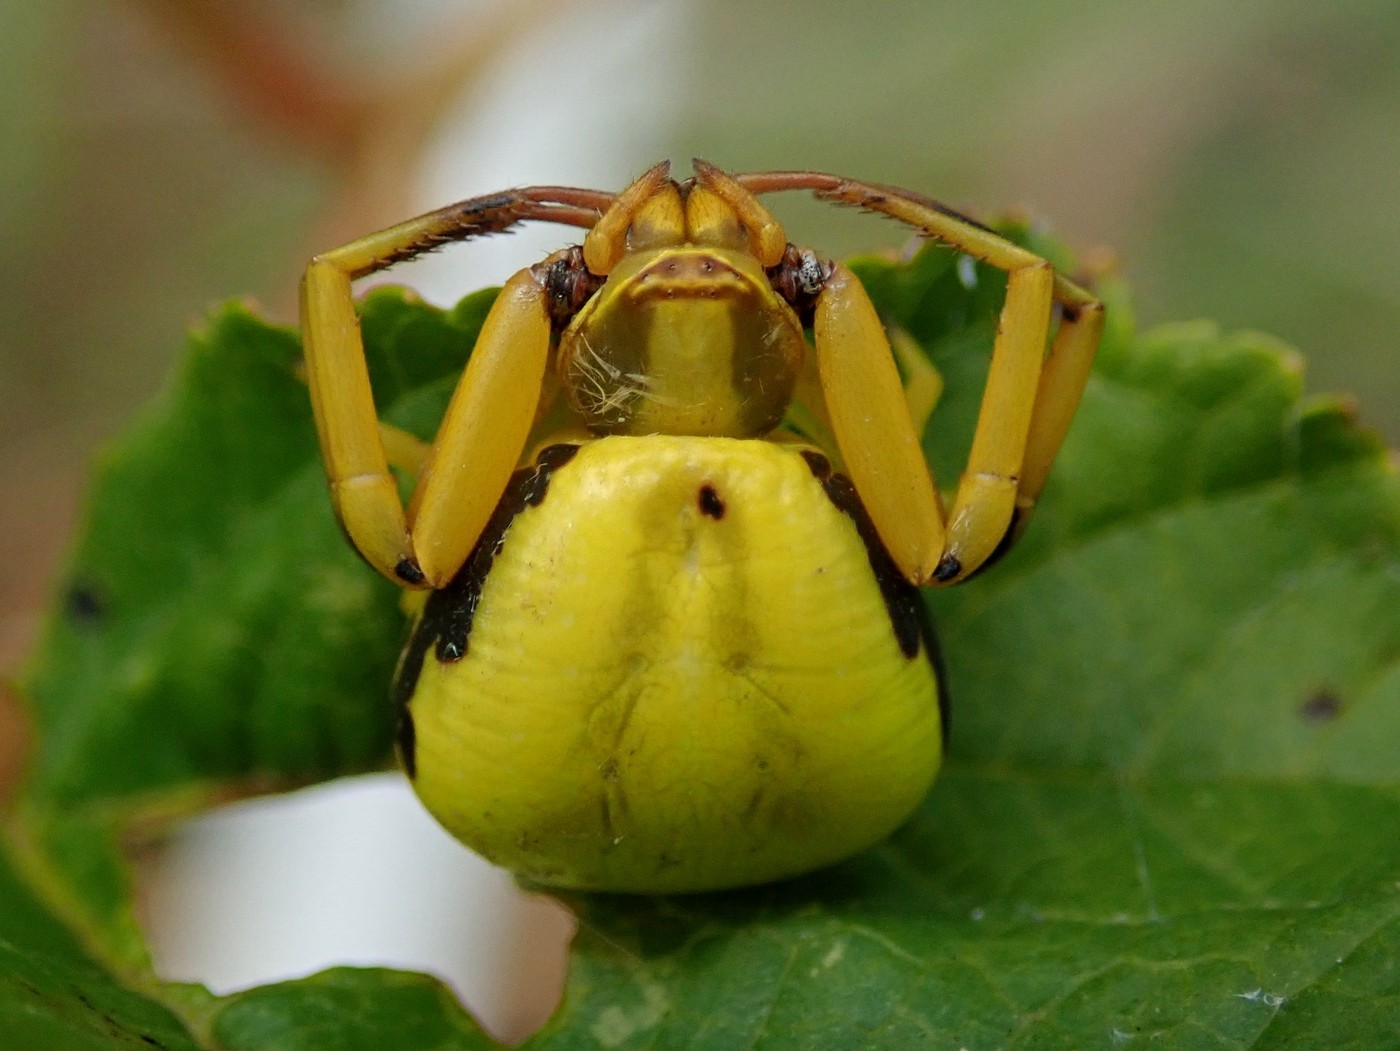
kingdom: Animalia
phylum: Arthropoda
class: Arachnida
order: Araneae
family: Thomisidae
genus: Misumenoides
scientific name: Misumenoides formosipes
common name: White-banded crab spider
